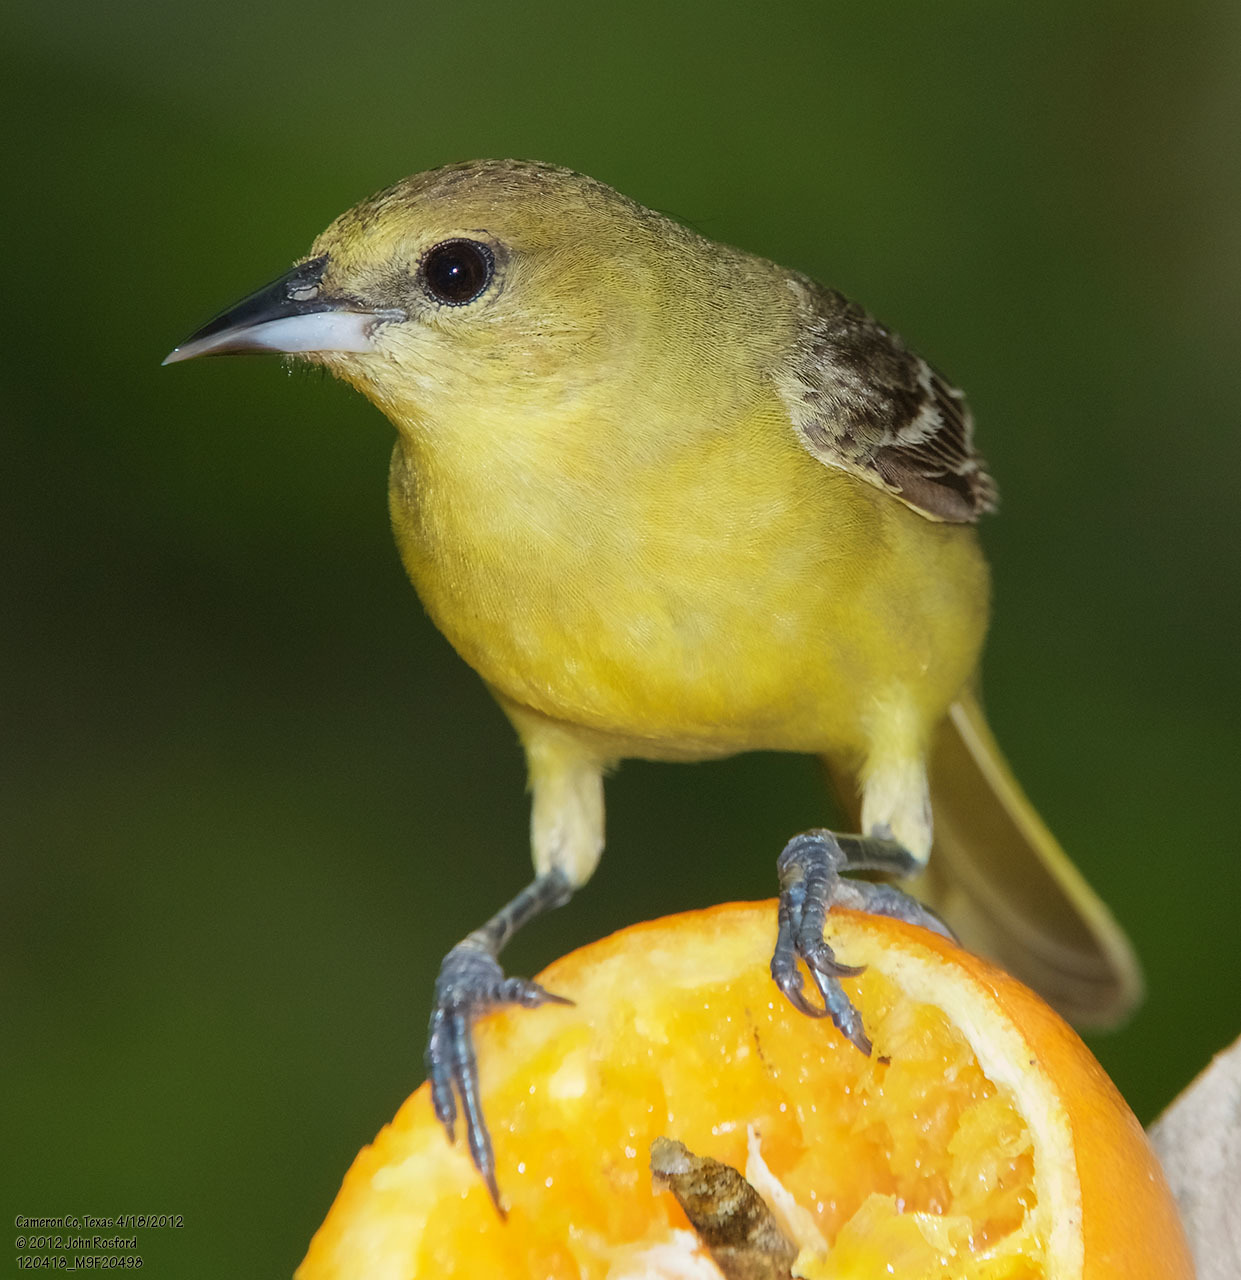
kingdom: Animalia
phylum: Chordata
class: Aves
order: Passeriformes
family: Icteridae
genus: Icterus
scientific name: Icterus spurius
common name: Orchard oriole
